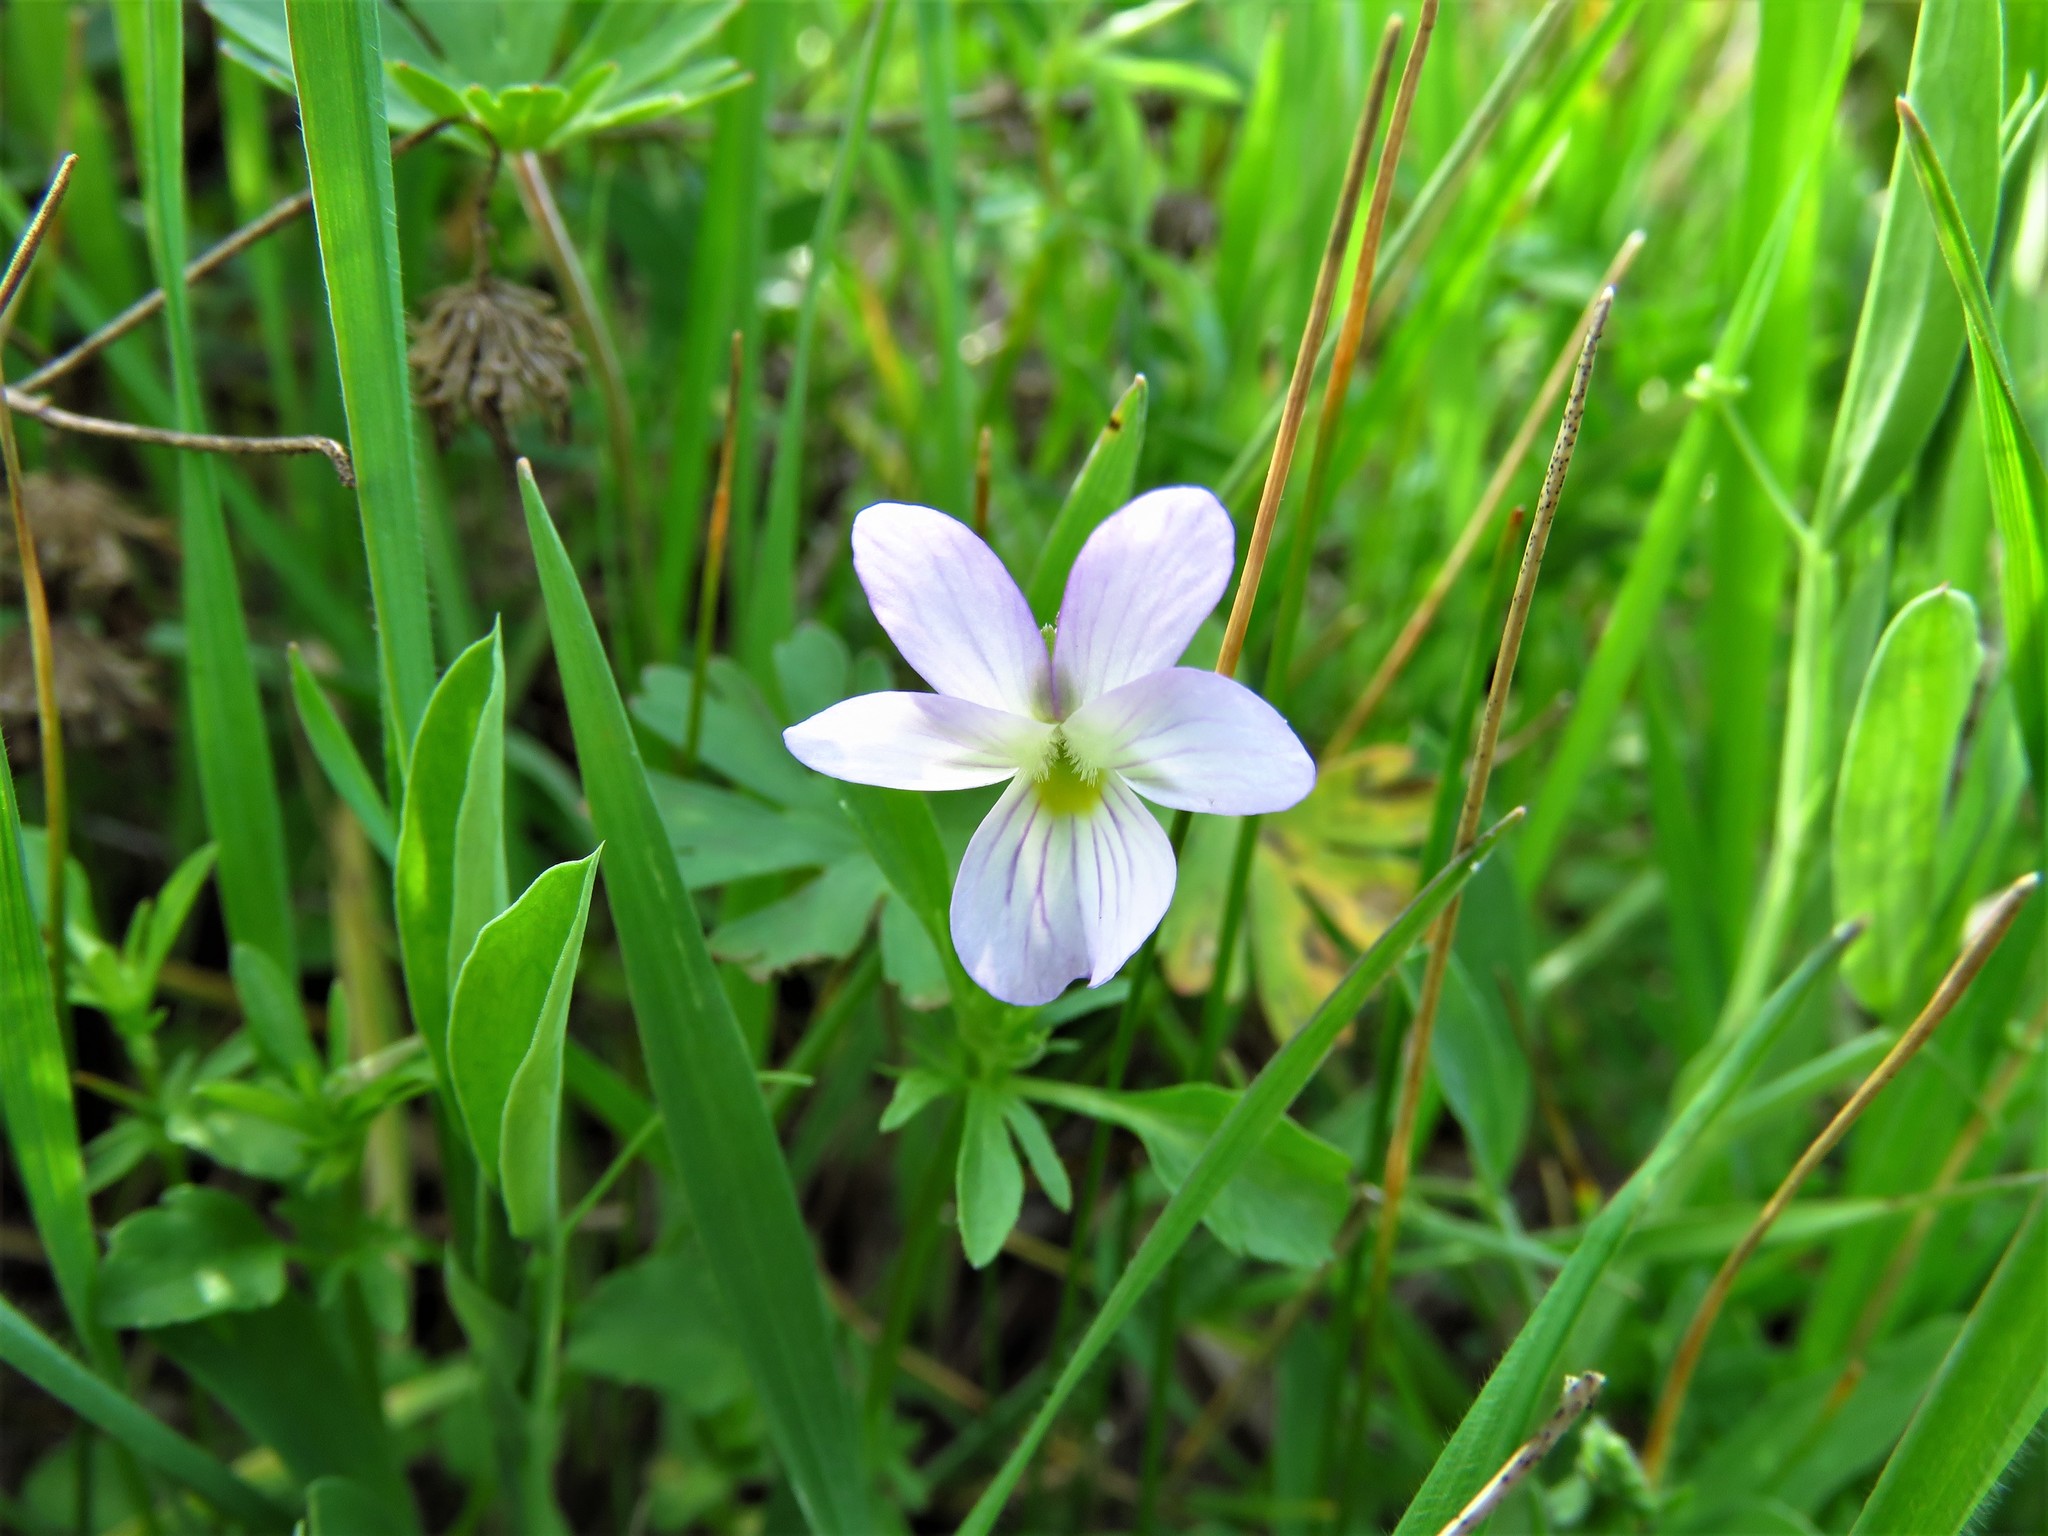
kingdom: Plantae
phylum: Tracheophyta
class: Magnoliopsida
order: Malpighiales
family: Violaceae
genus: Viola
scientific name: Viola rafinesquei
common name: American field pansy
